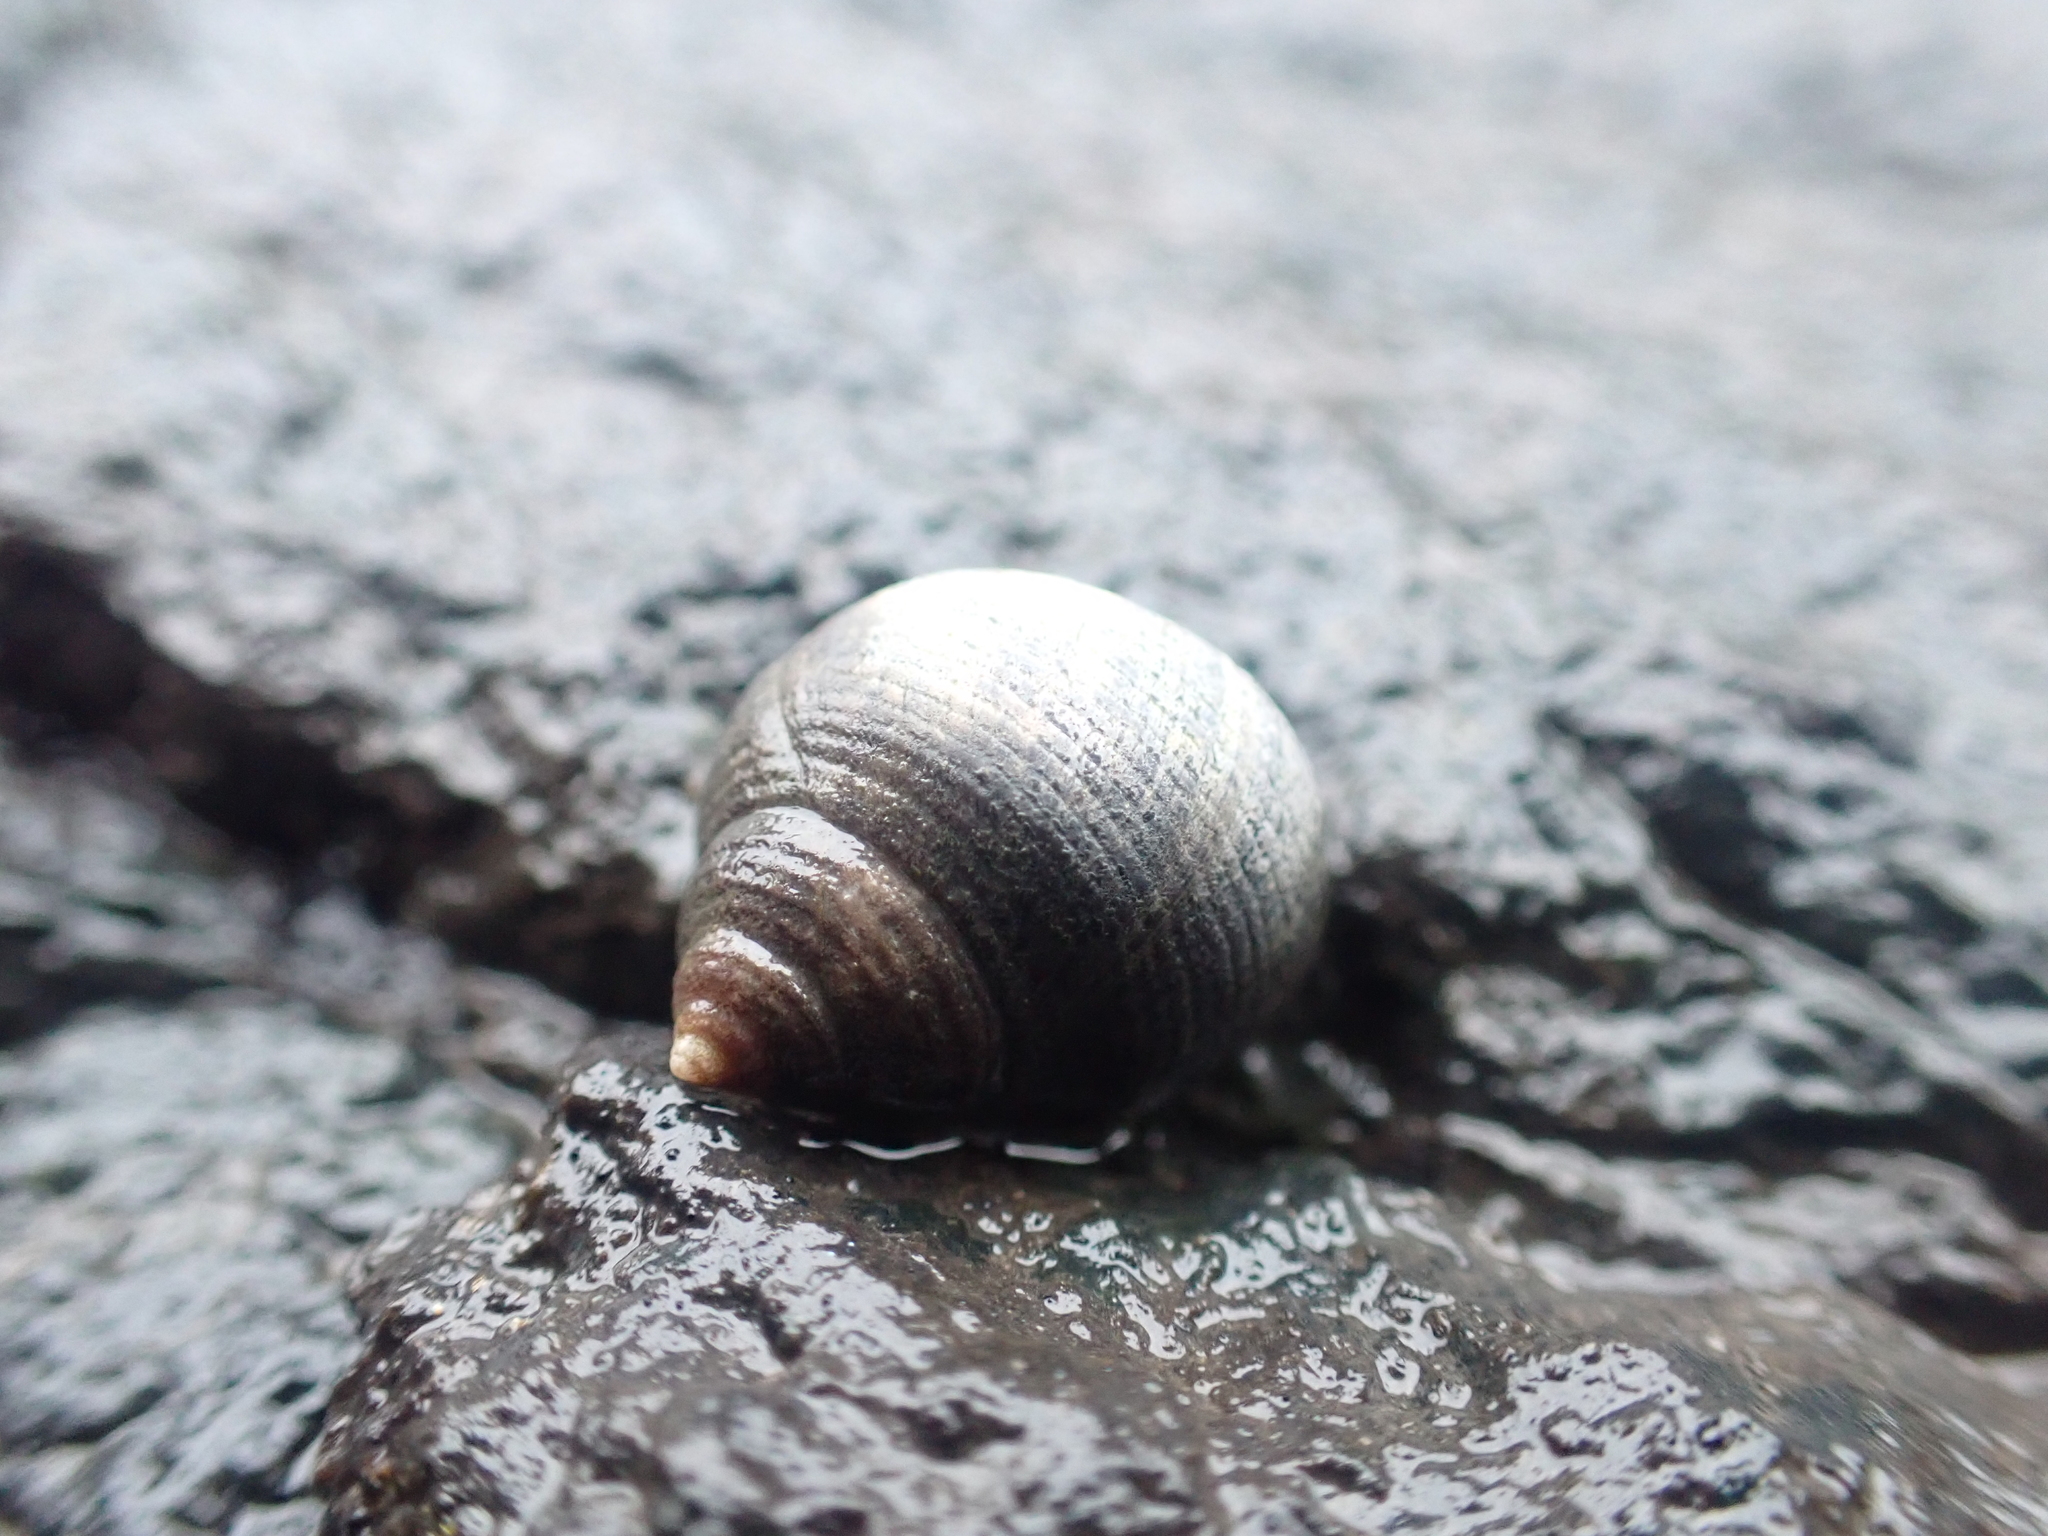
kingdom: Animalia
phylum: Mollusca
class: Gastropoda
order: Littorinimorpha
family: Littorinidae
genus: Littorina
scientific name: Littorina littorea
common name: Common periwinkle
